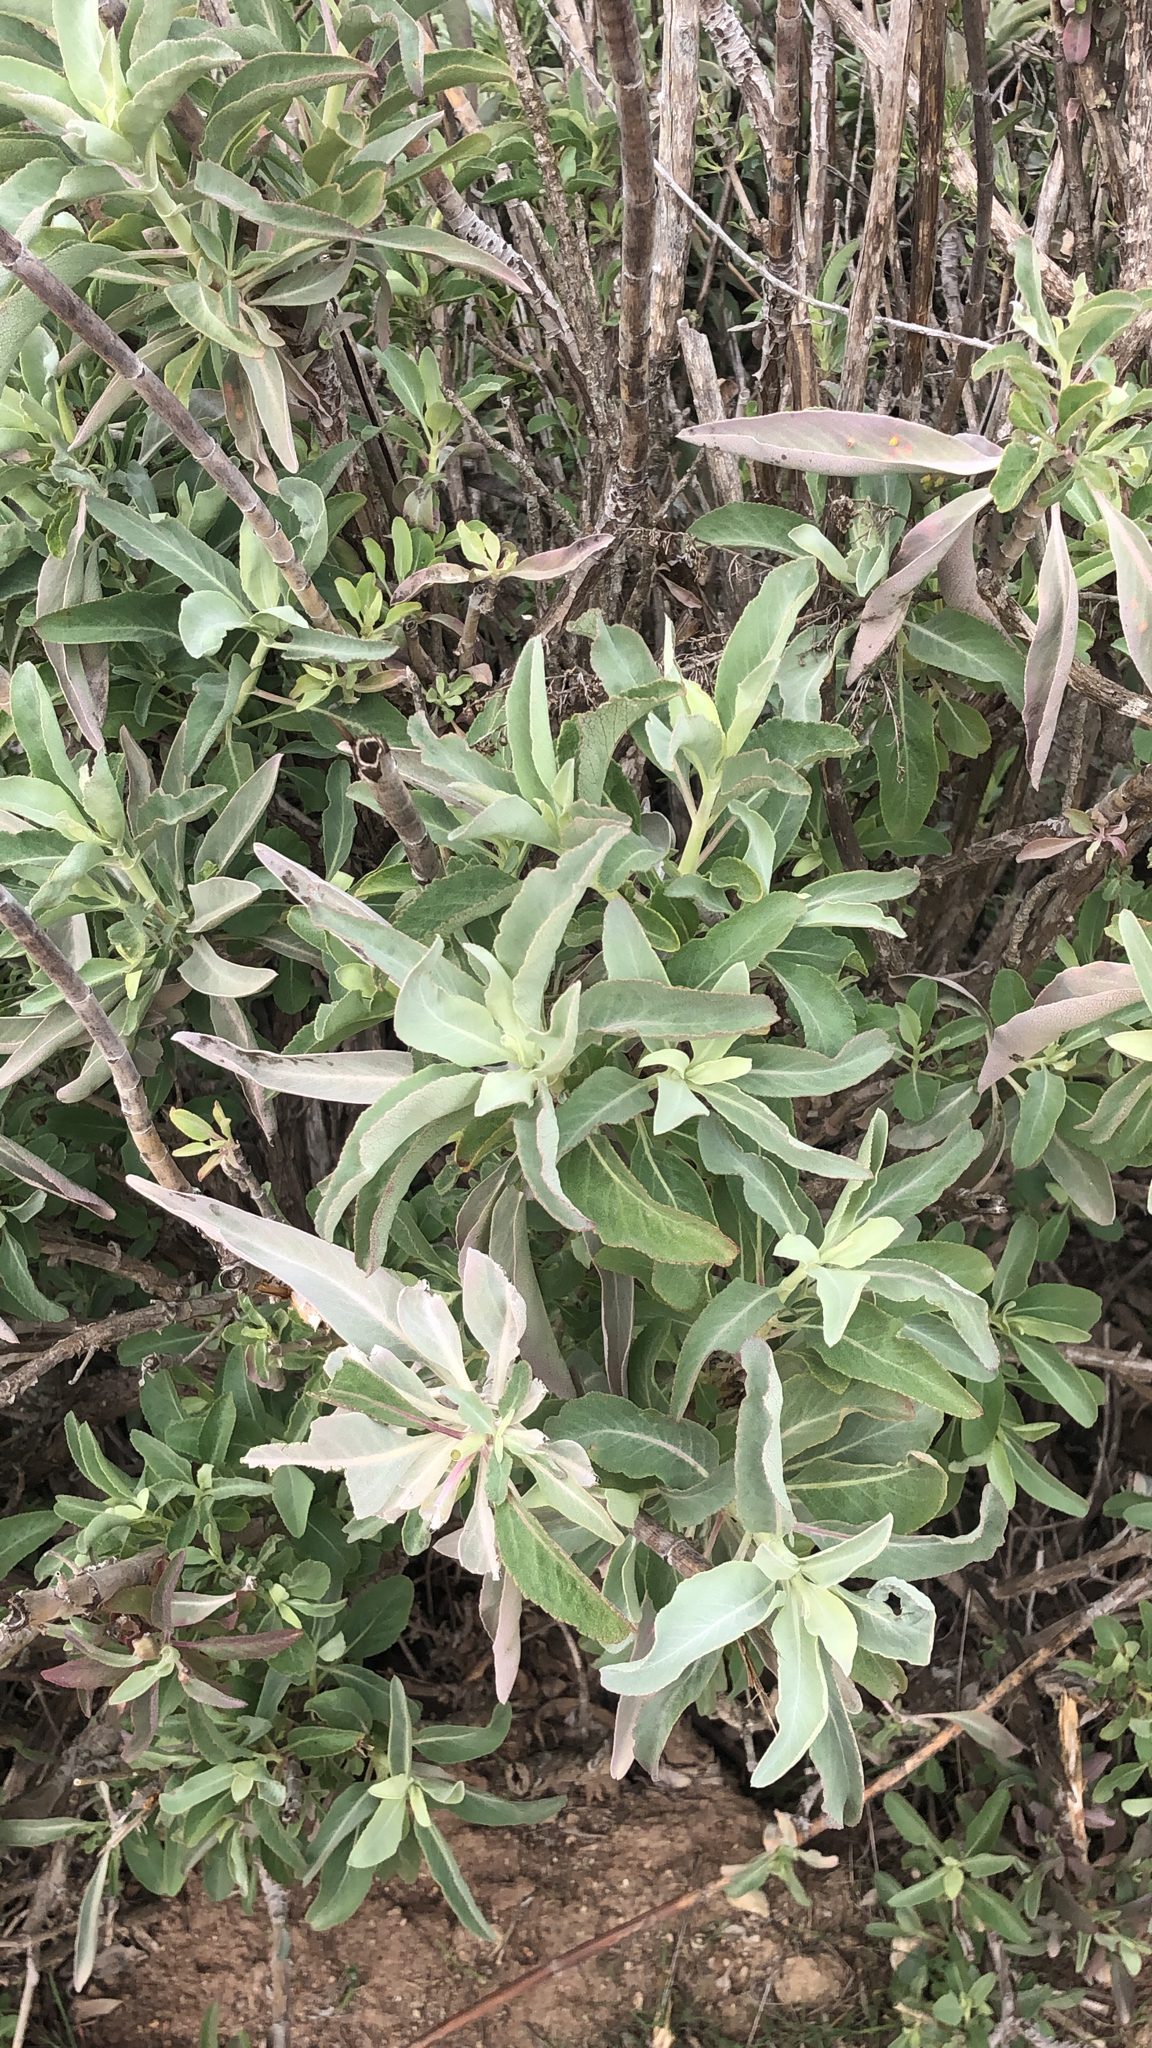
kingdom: Plantae
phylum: Tracheophyta
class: Magnoliopsida
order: Lamiales
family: Lamiaceae
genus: Salvia
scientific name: Salvia apiana
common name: White sage
